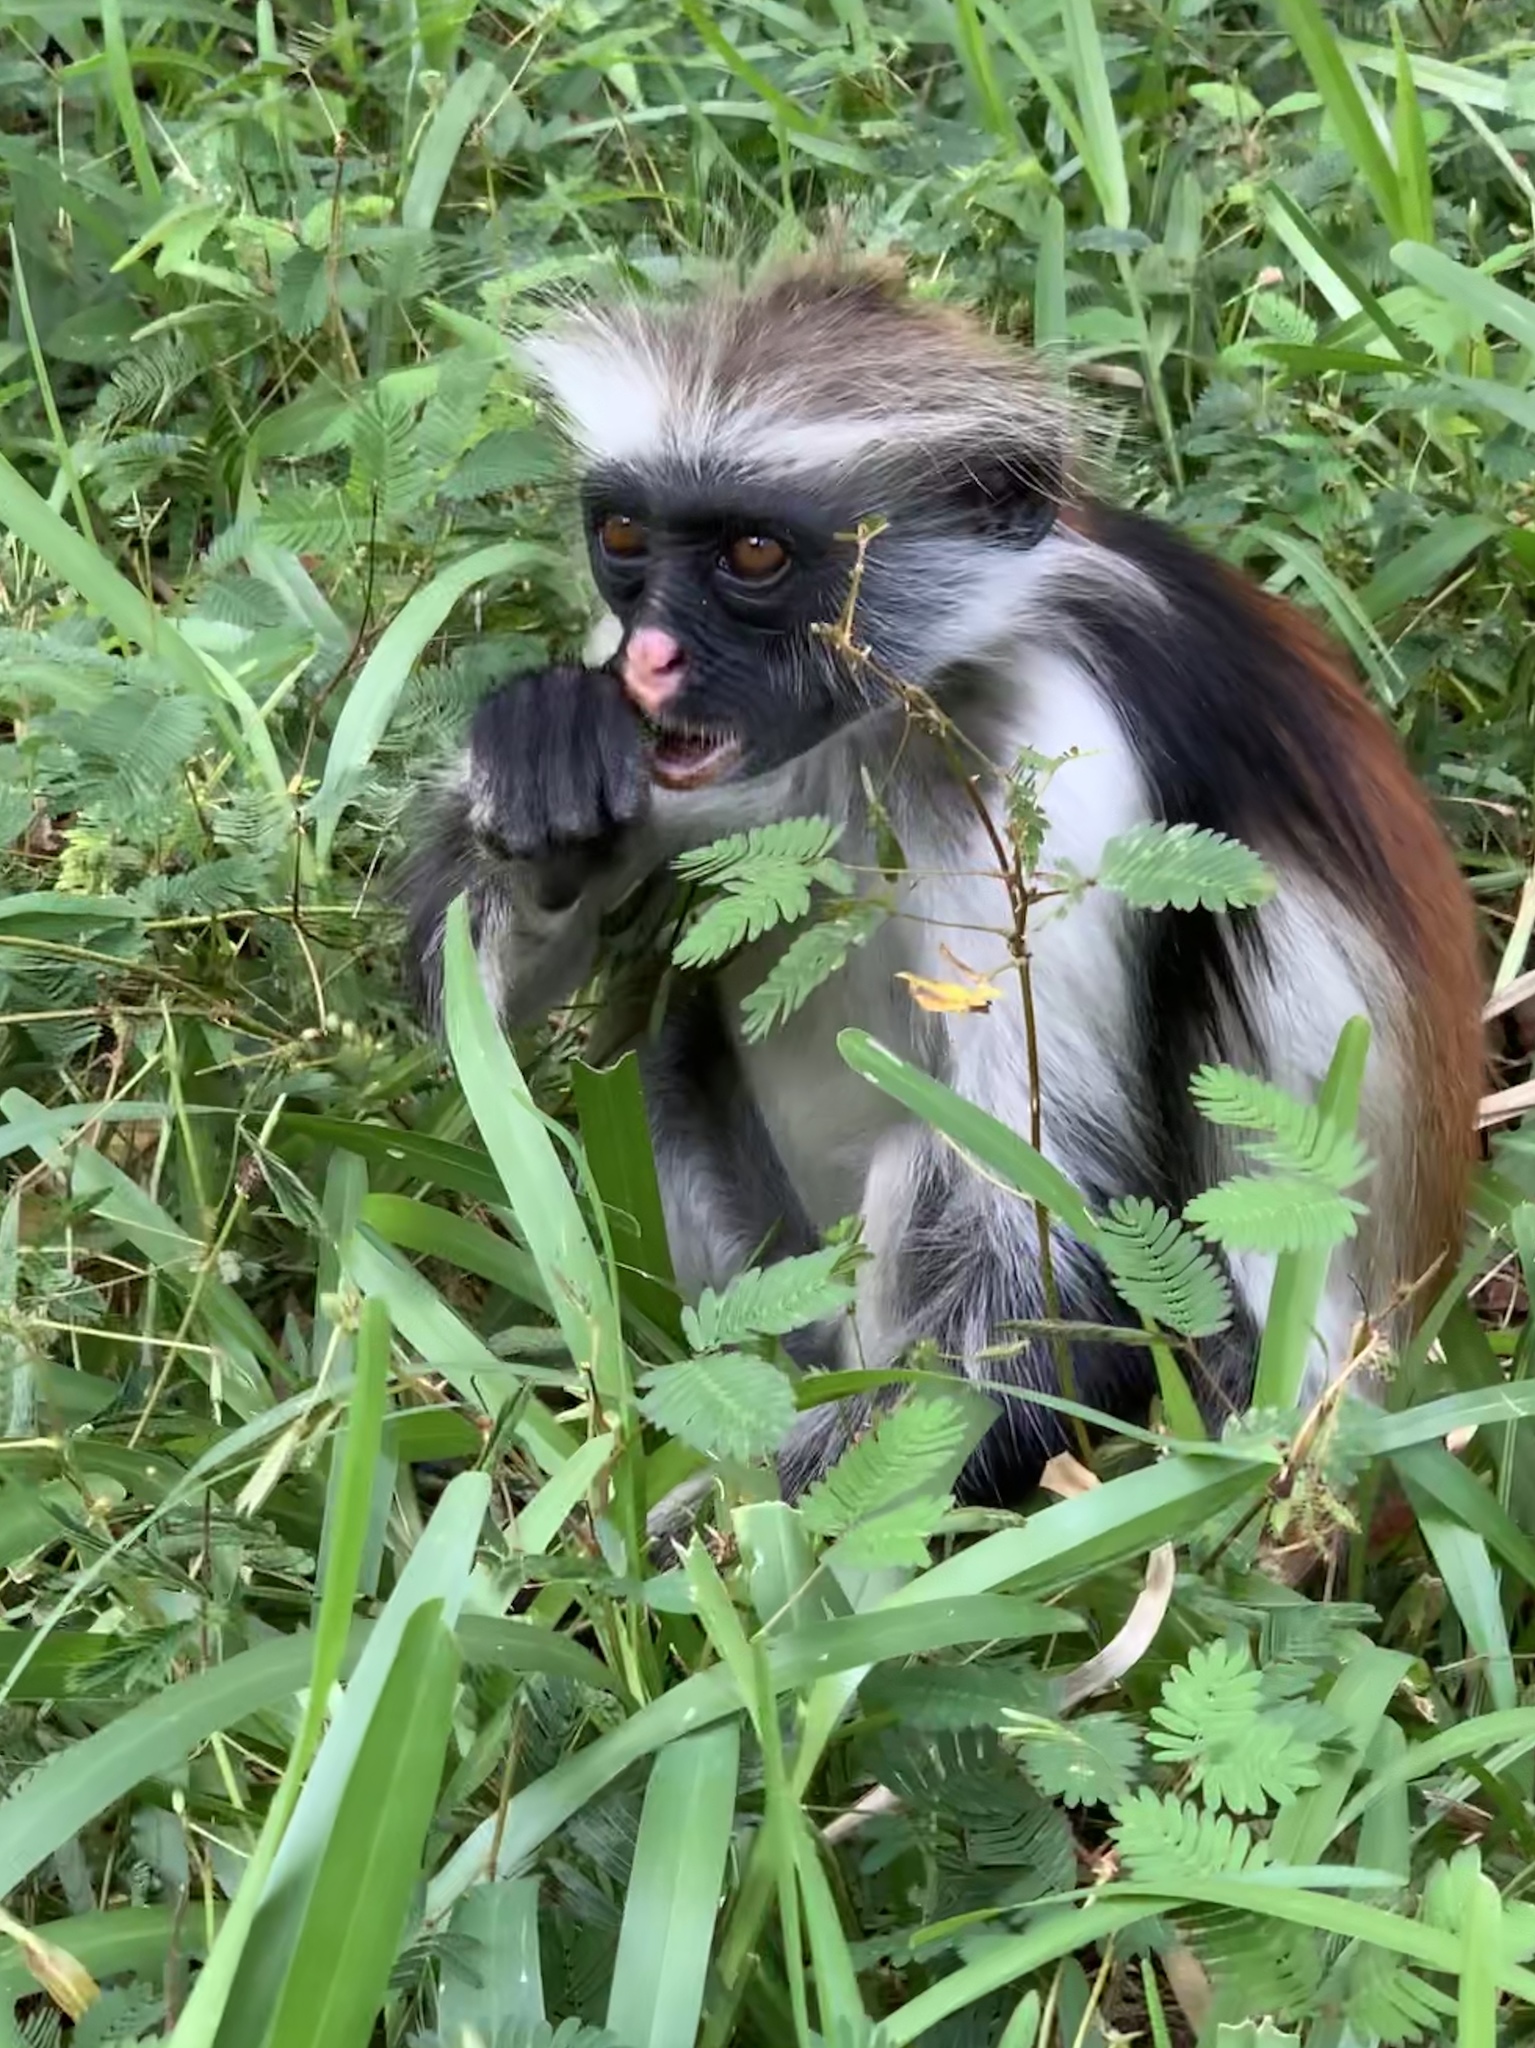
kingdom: Animalia
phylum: Chordata
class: Mammalia
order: Primates
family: Cercopithecidae
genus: Piliocolobus
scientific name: Piliocolobus kirkii
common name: Zanzibar red colobus
